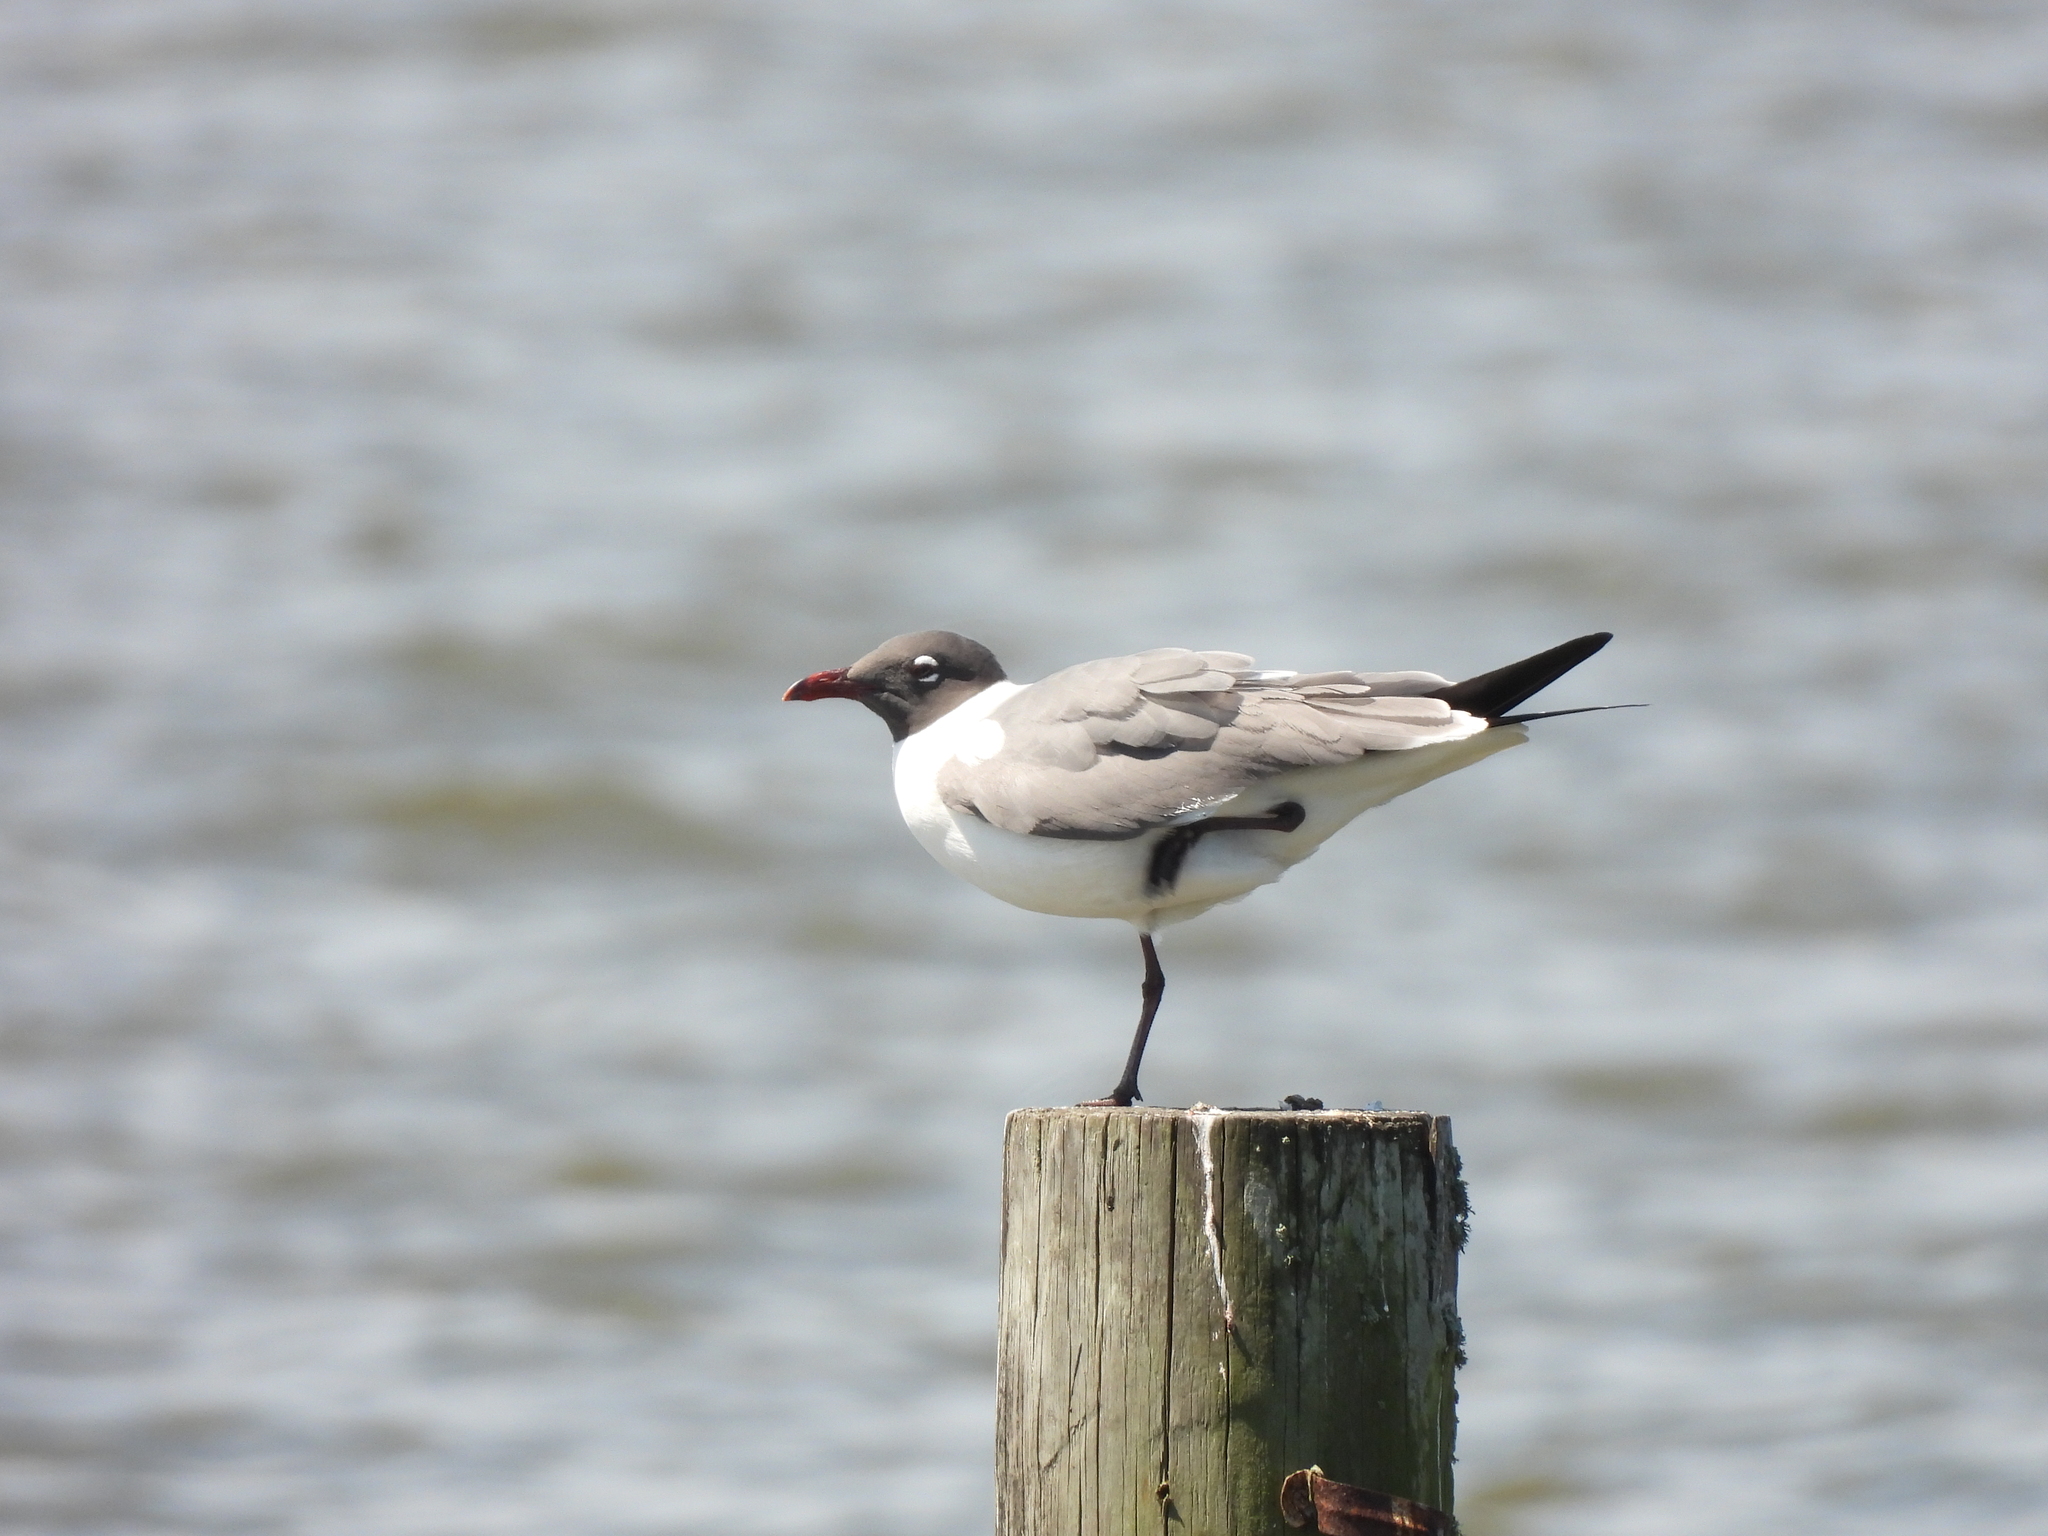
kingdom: Animalia
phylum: Chordata
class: Aves
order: Charadriiformes
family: Laridae
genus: Leucophaeus
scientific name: Leucophaeus atricilla
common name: Laughing gull
